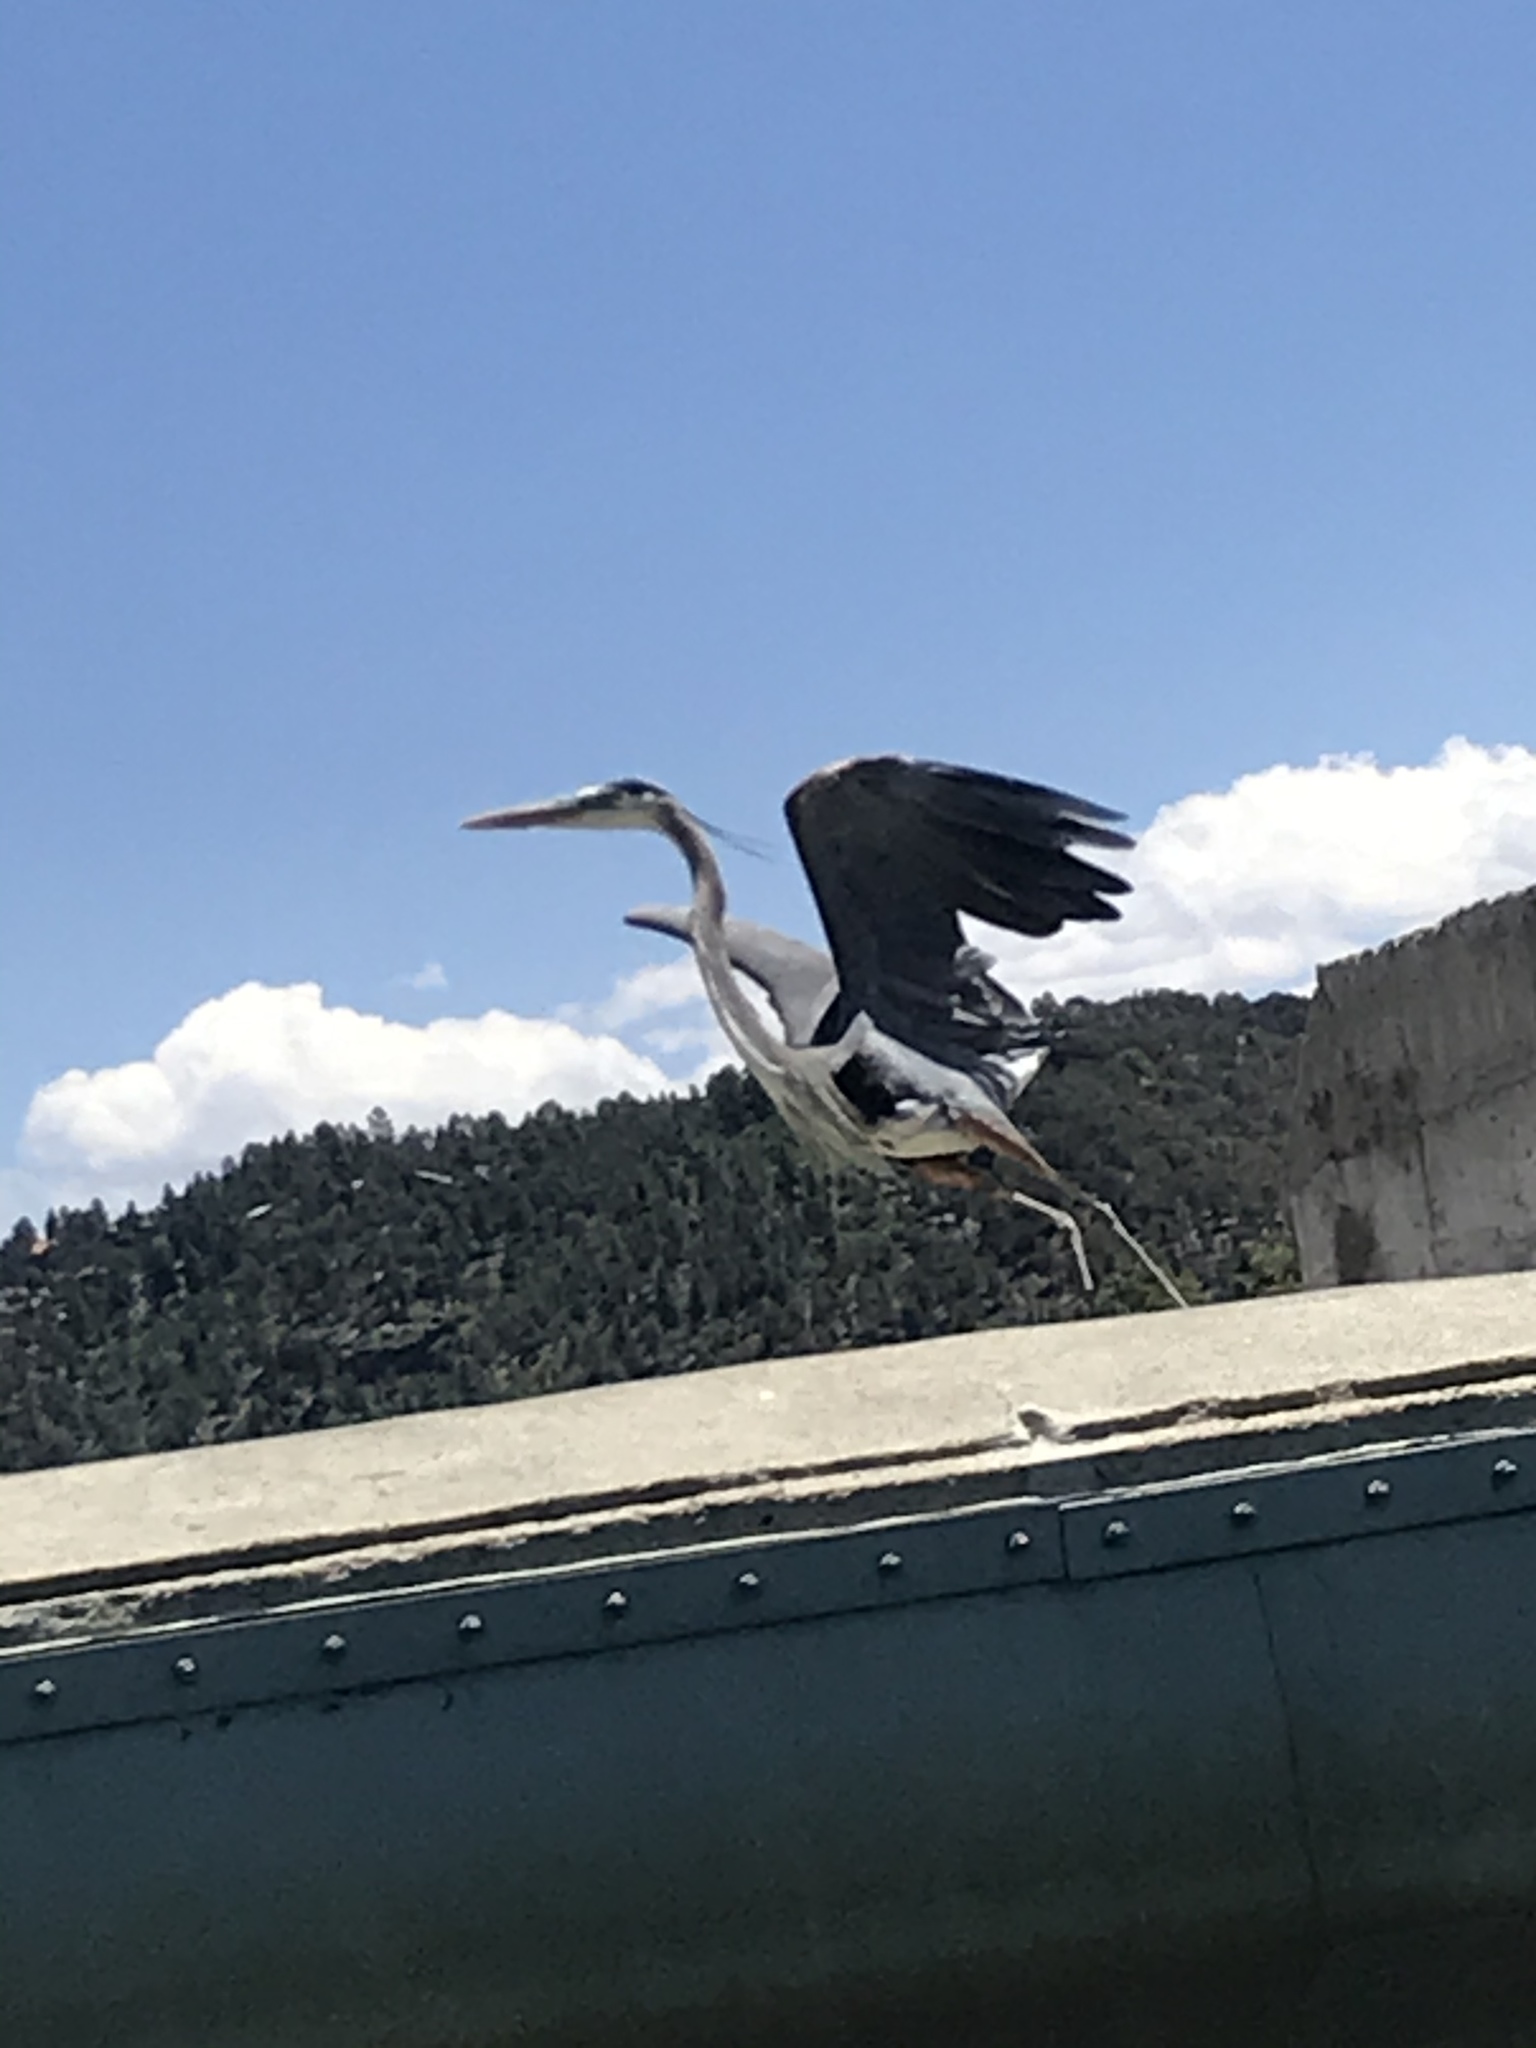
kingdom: Animalia
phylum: Chordata
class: Aves
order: Pelecaniformes
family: Ardeidae
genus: Ardea
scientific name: Ardea herodias
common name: Great blue heron
